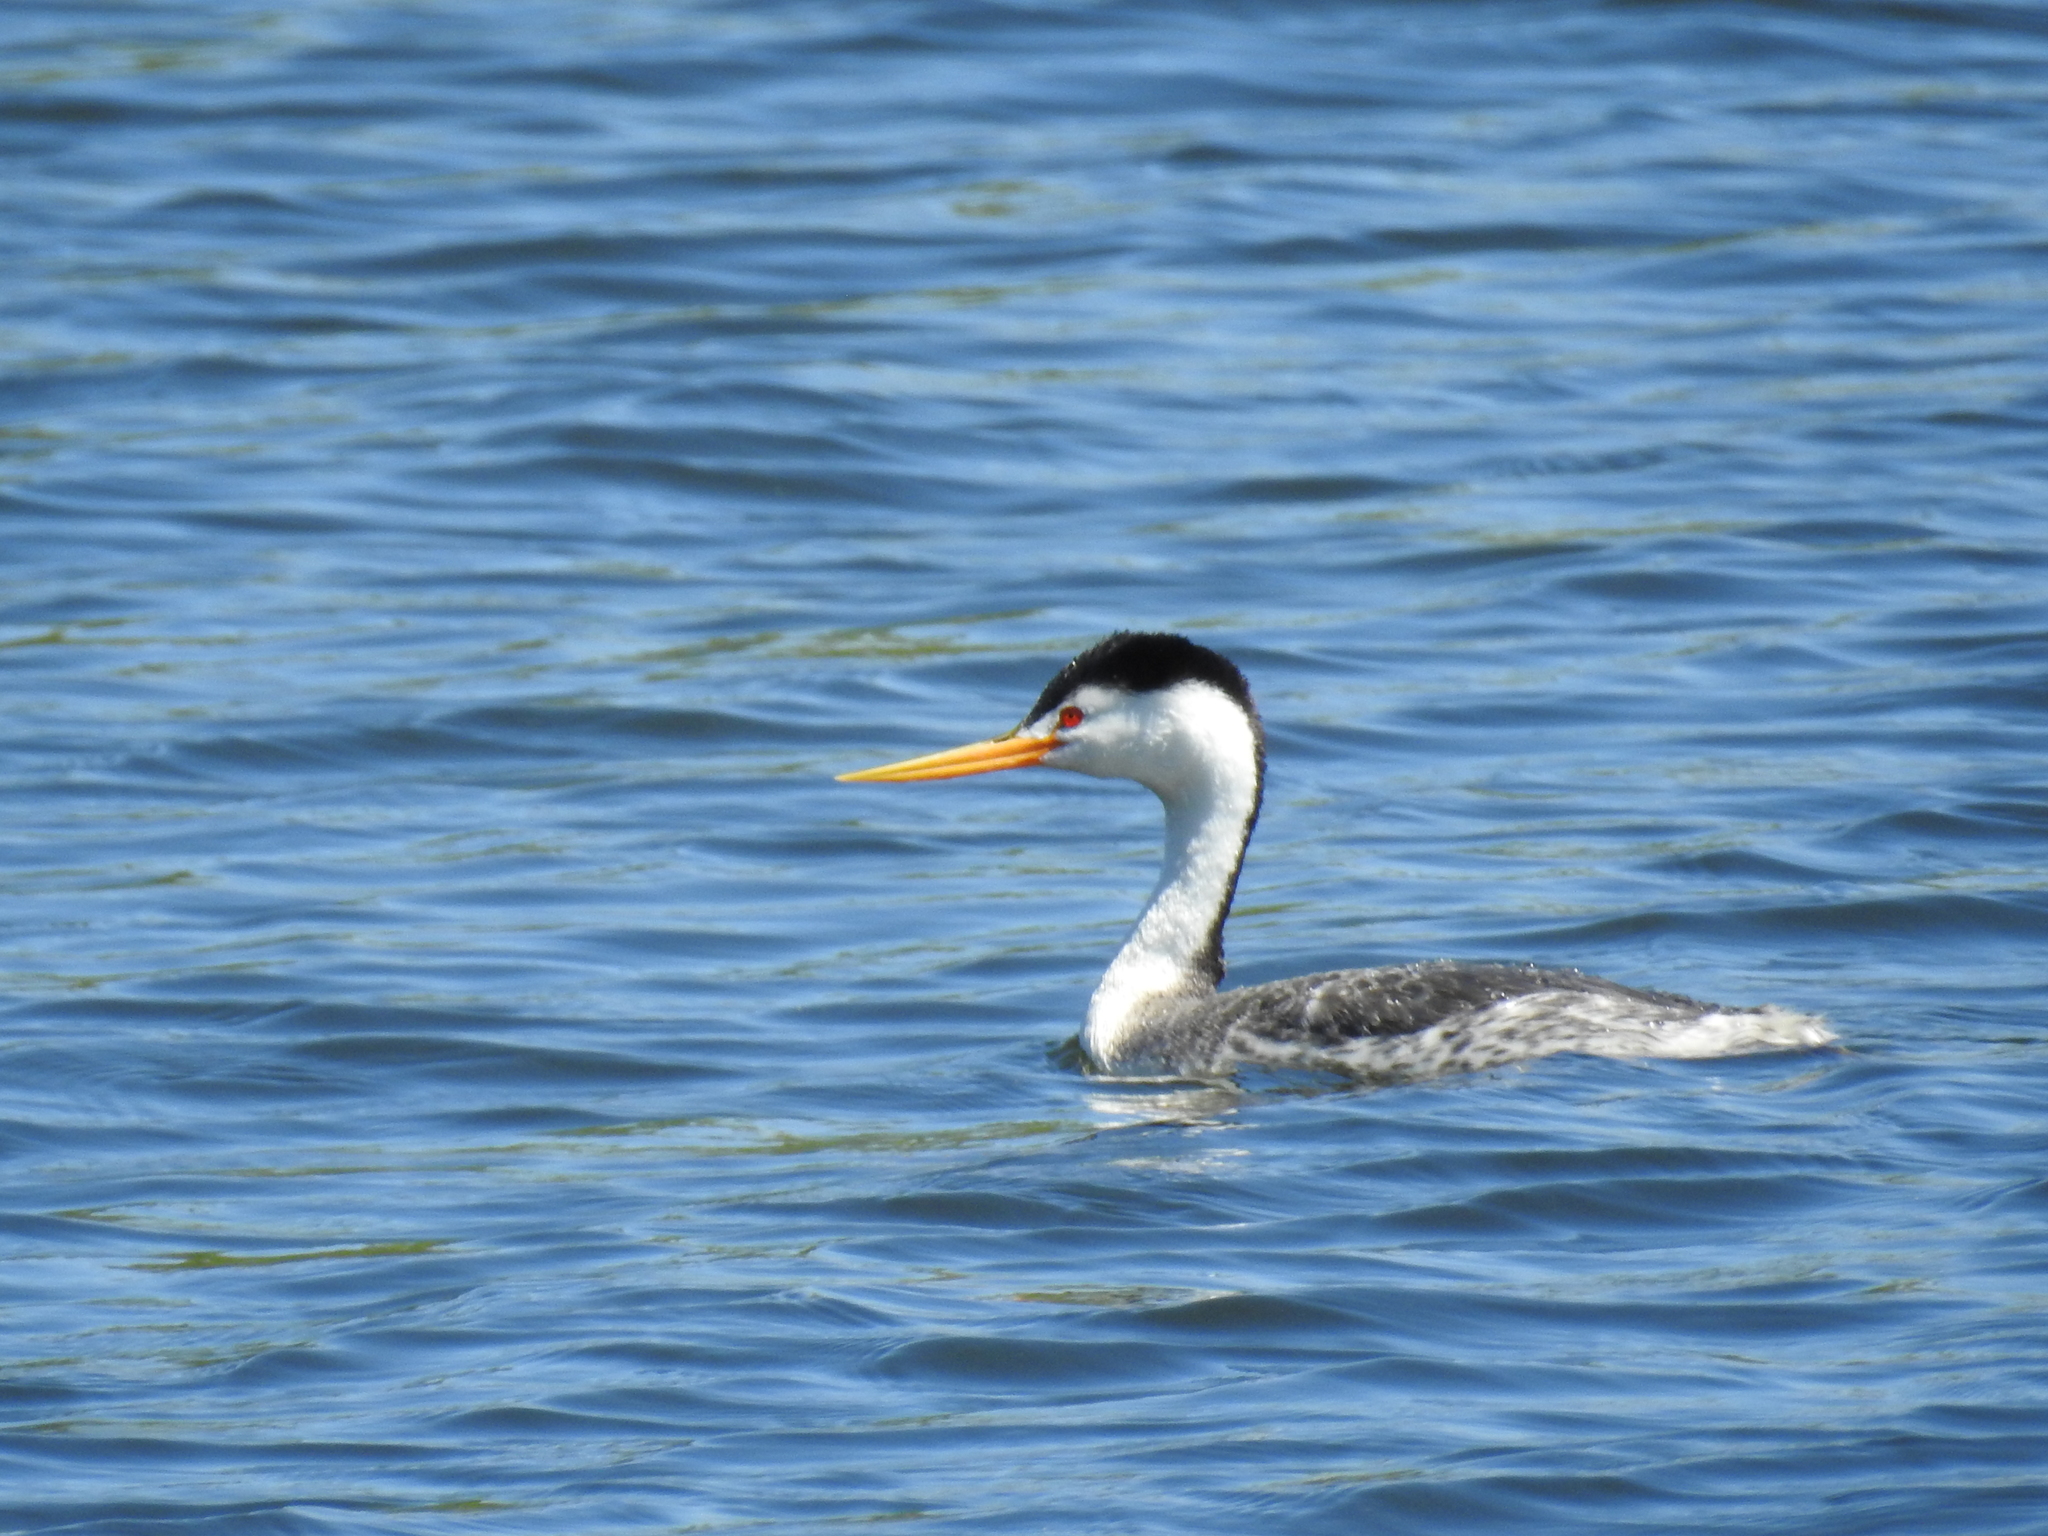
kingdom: Animalia
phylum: Chordata
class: Aves
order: Podicipediformes
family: Podicipedidae
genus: Aechmophorus
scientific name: Aechmophorus clarkii
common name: Clark's grebe
